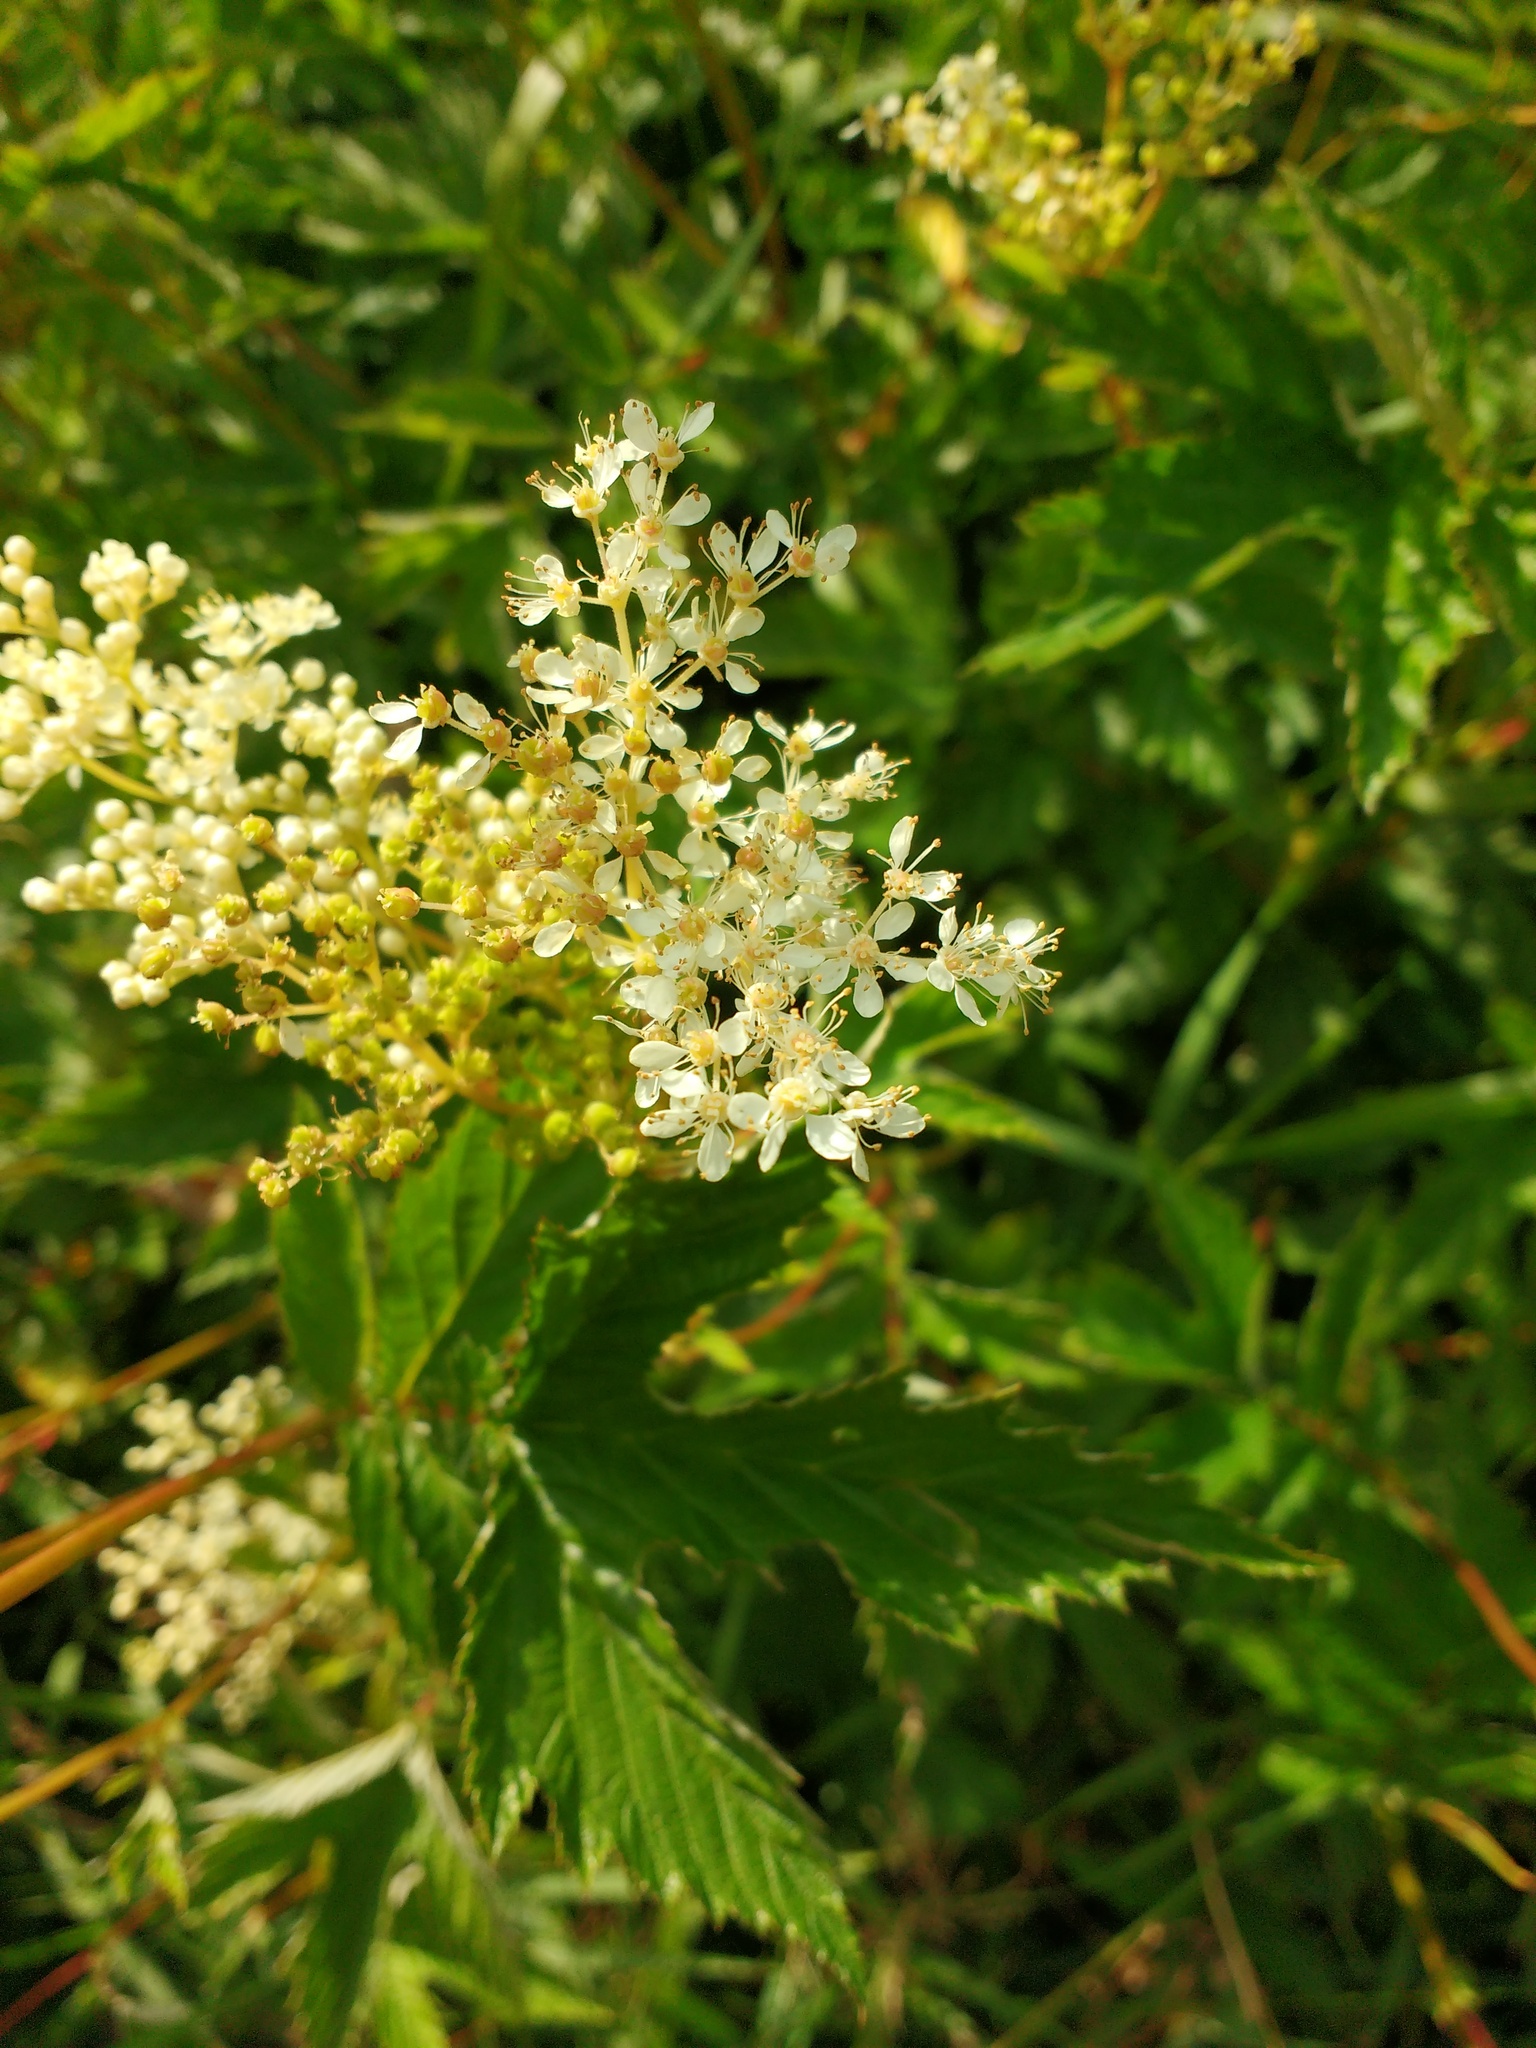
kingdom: Plantae
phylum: Tracheophyta
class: Magnoliopsida
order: Rosales
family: Rosaceae
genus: Filipendula
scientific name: Filipendula ulmaria
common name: Meadowsweet
